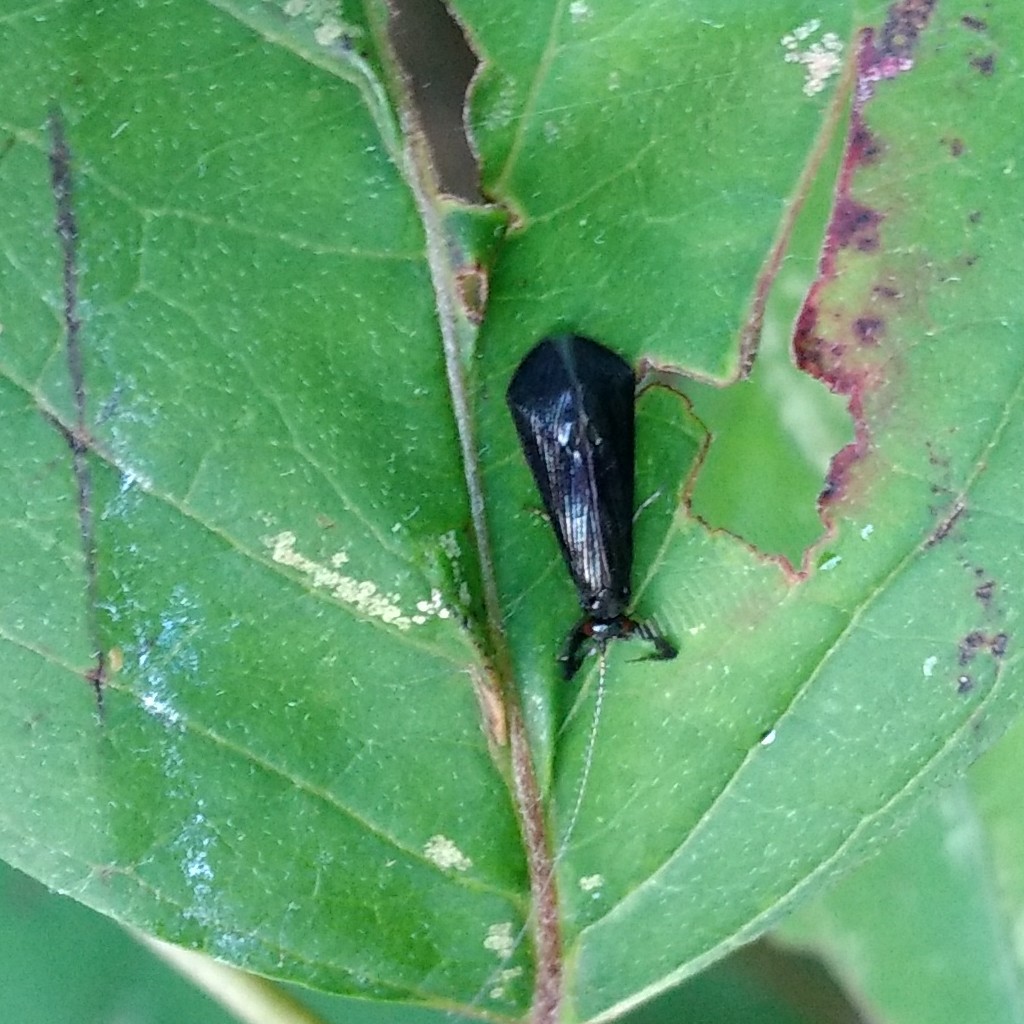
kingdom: Animalia
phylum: Arthropoda
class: Insecta
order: Trichoptera
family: Leptoceridae
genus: Mystacides
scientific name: Mystacides sepulchralis
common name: Black dancer caddisfly
